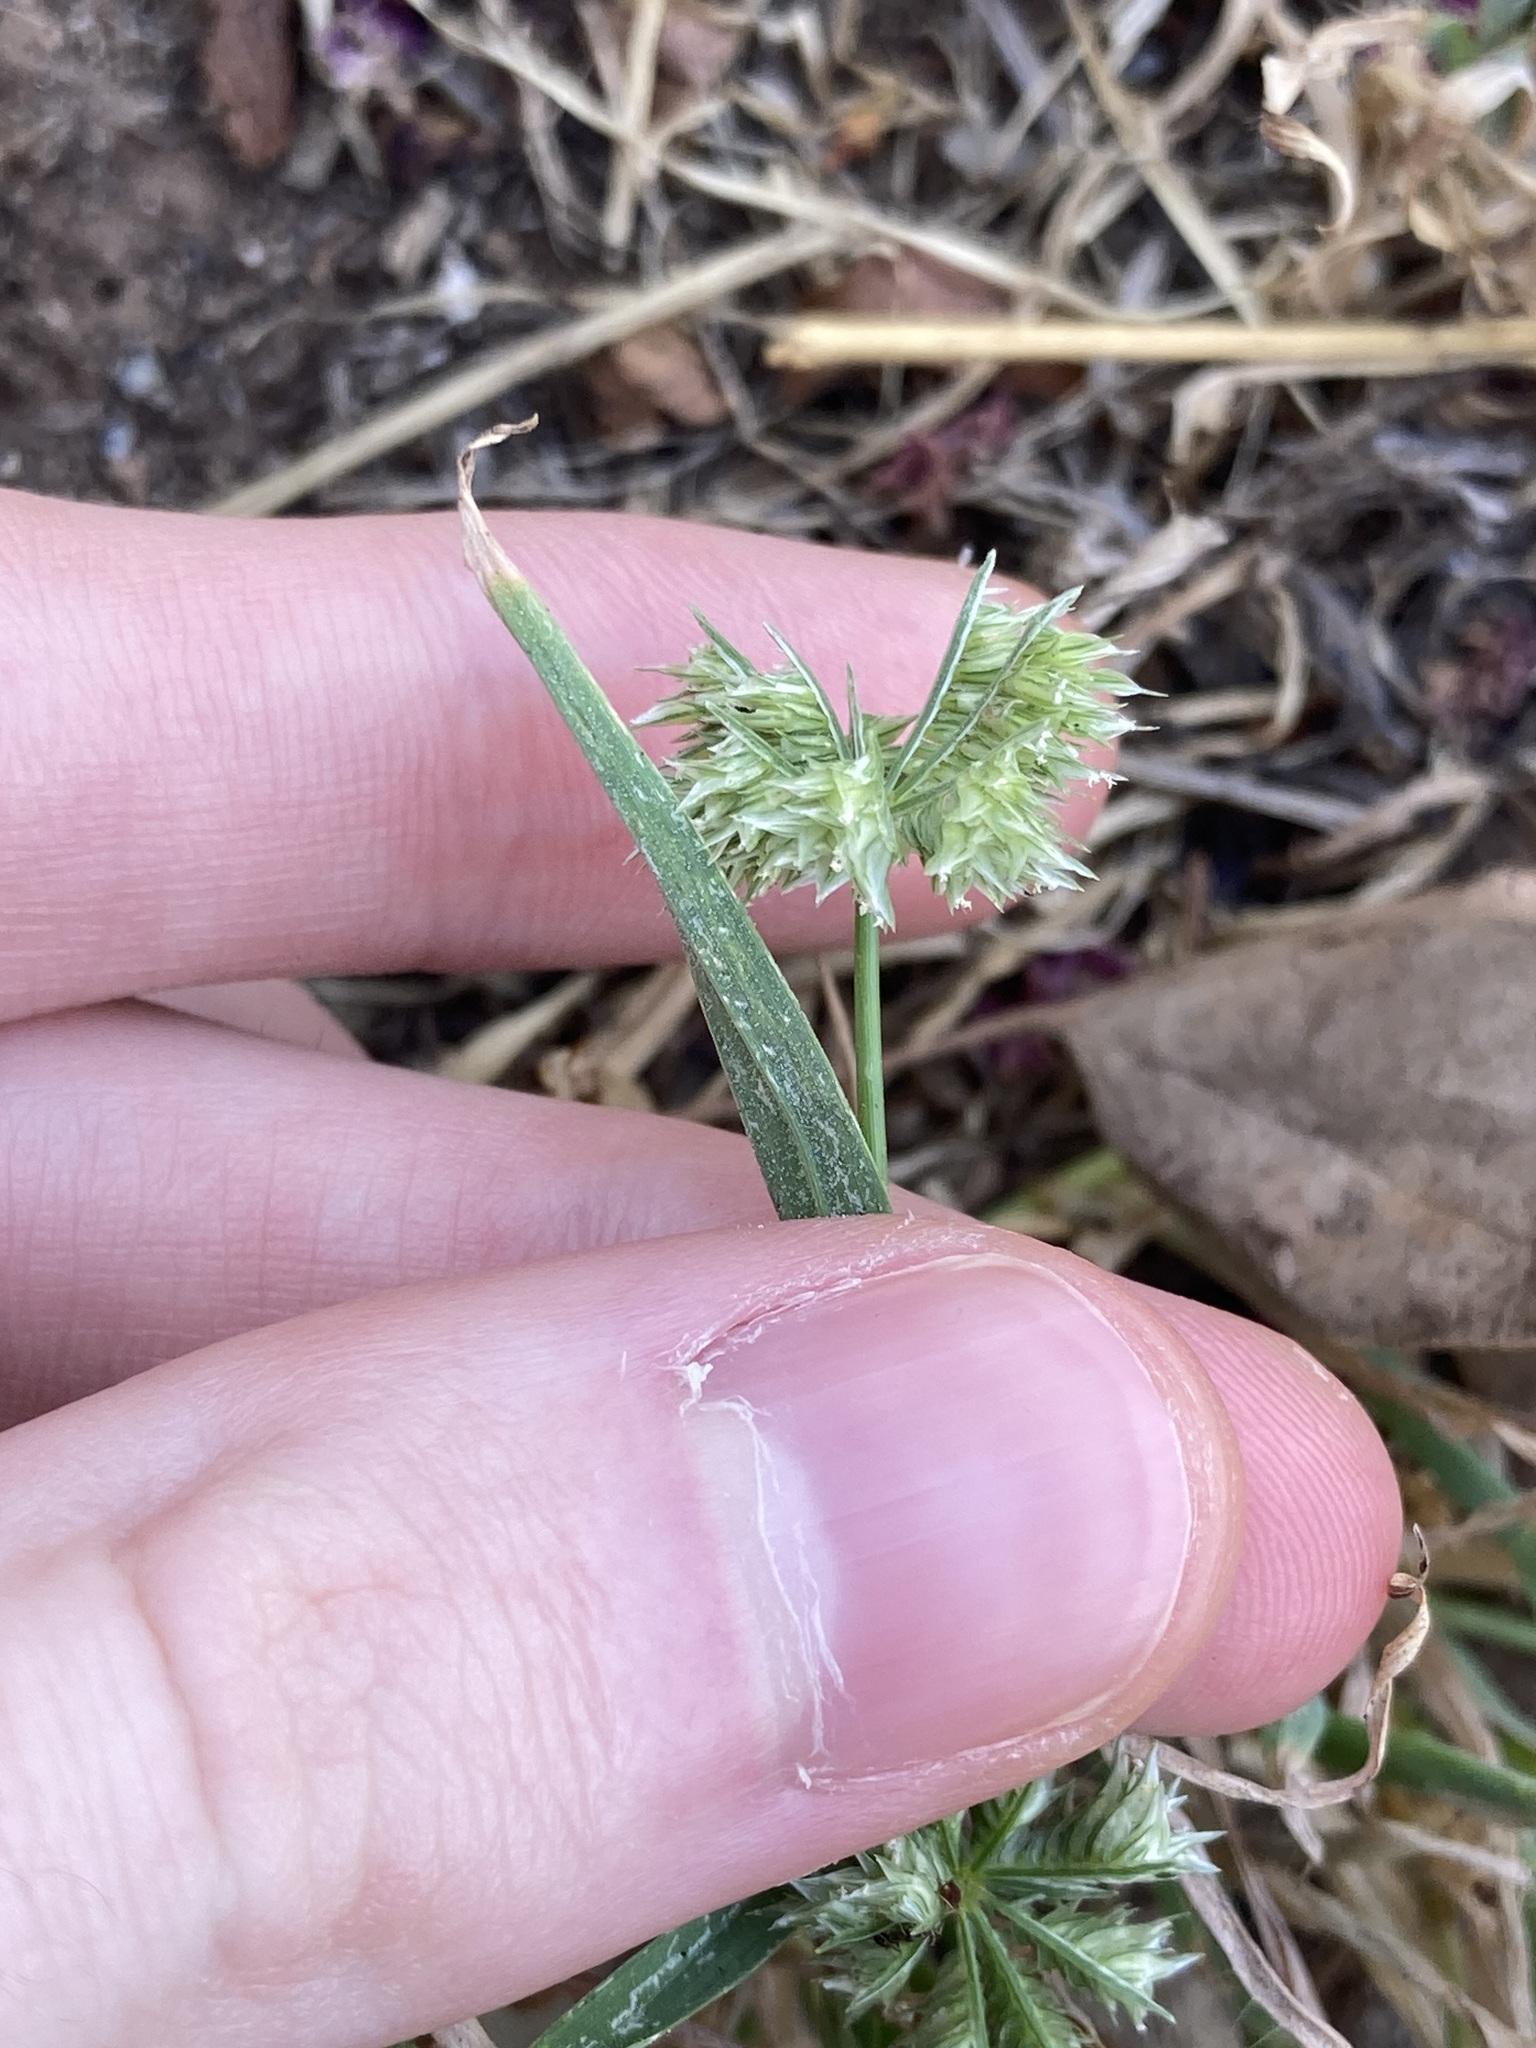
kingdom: Plantae
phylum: Tracheophyta
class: Liliopsida
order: Poales
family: Poaceae
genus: Dactyloctenium
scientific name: Dactyloctenium radulans
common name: Button-grass
